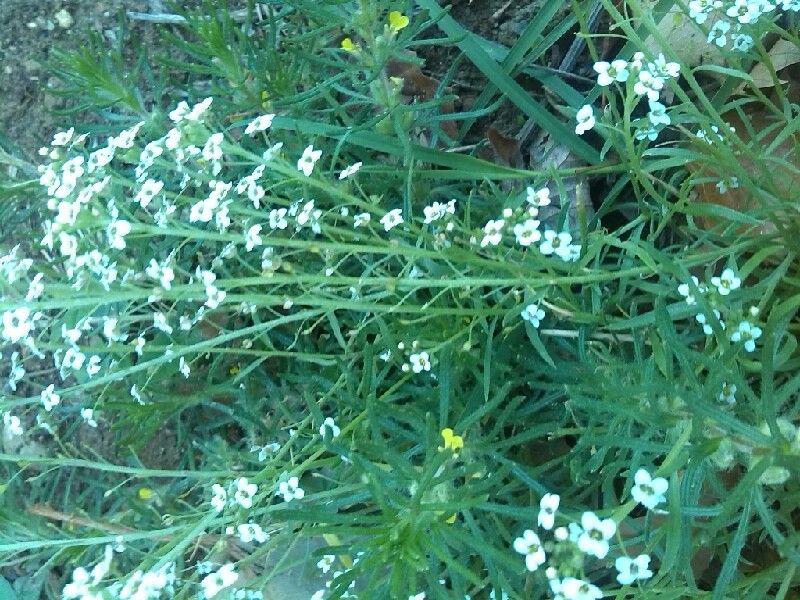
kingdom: Plantae
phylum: Tracheophyta
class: Magnoliopsida
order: Brassicales
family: Brassicaceae
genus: Lobularia
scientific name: Lobularia maritima
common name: Sweet alison
